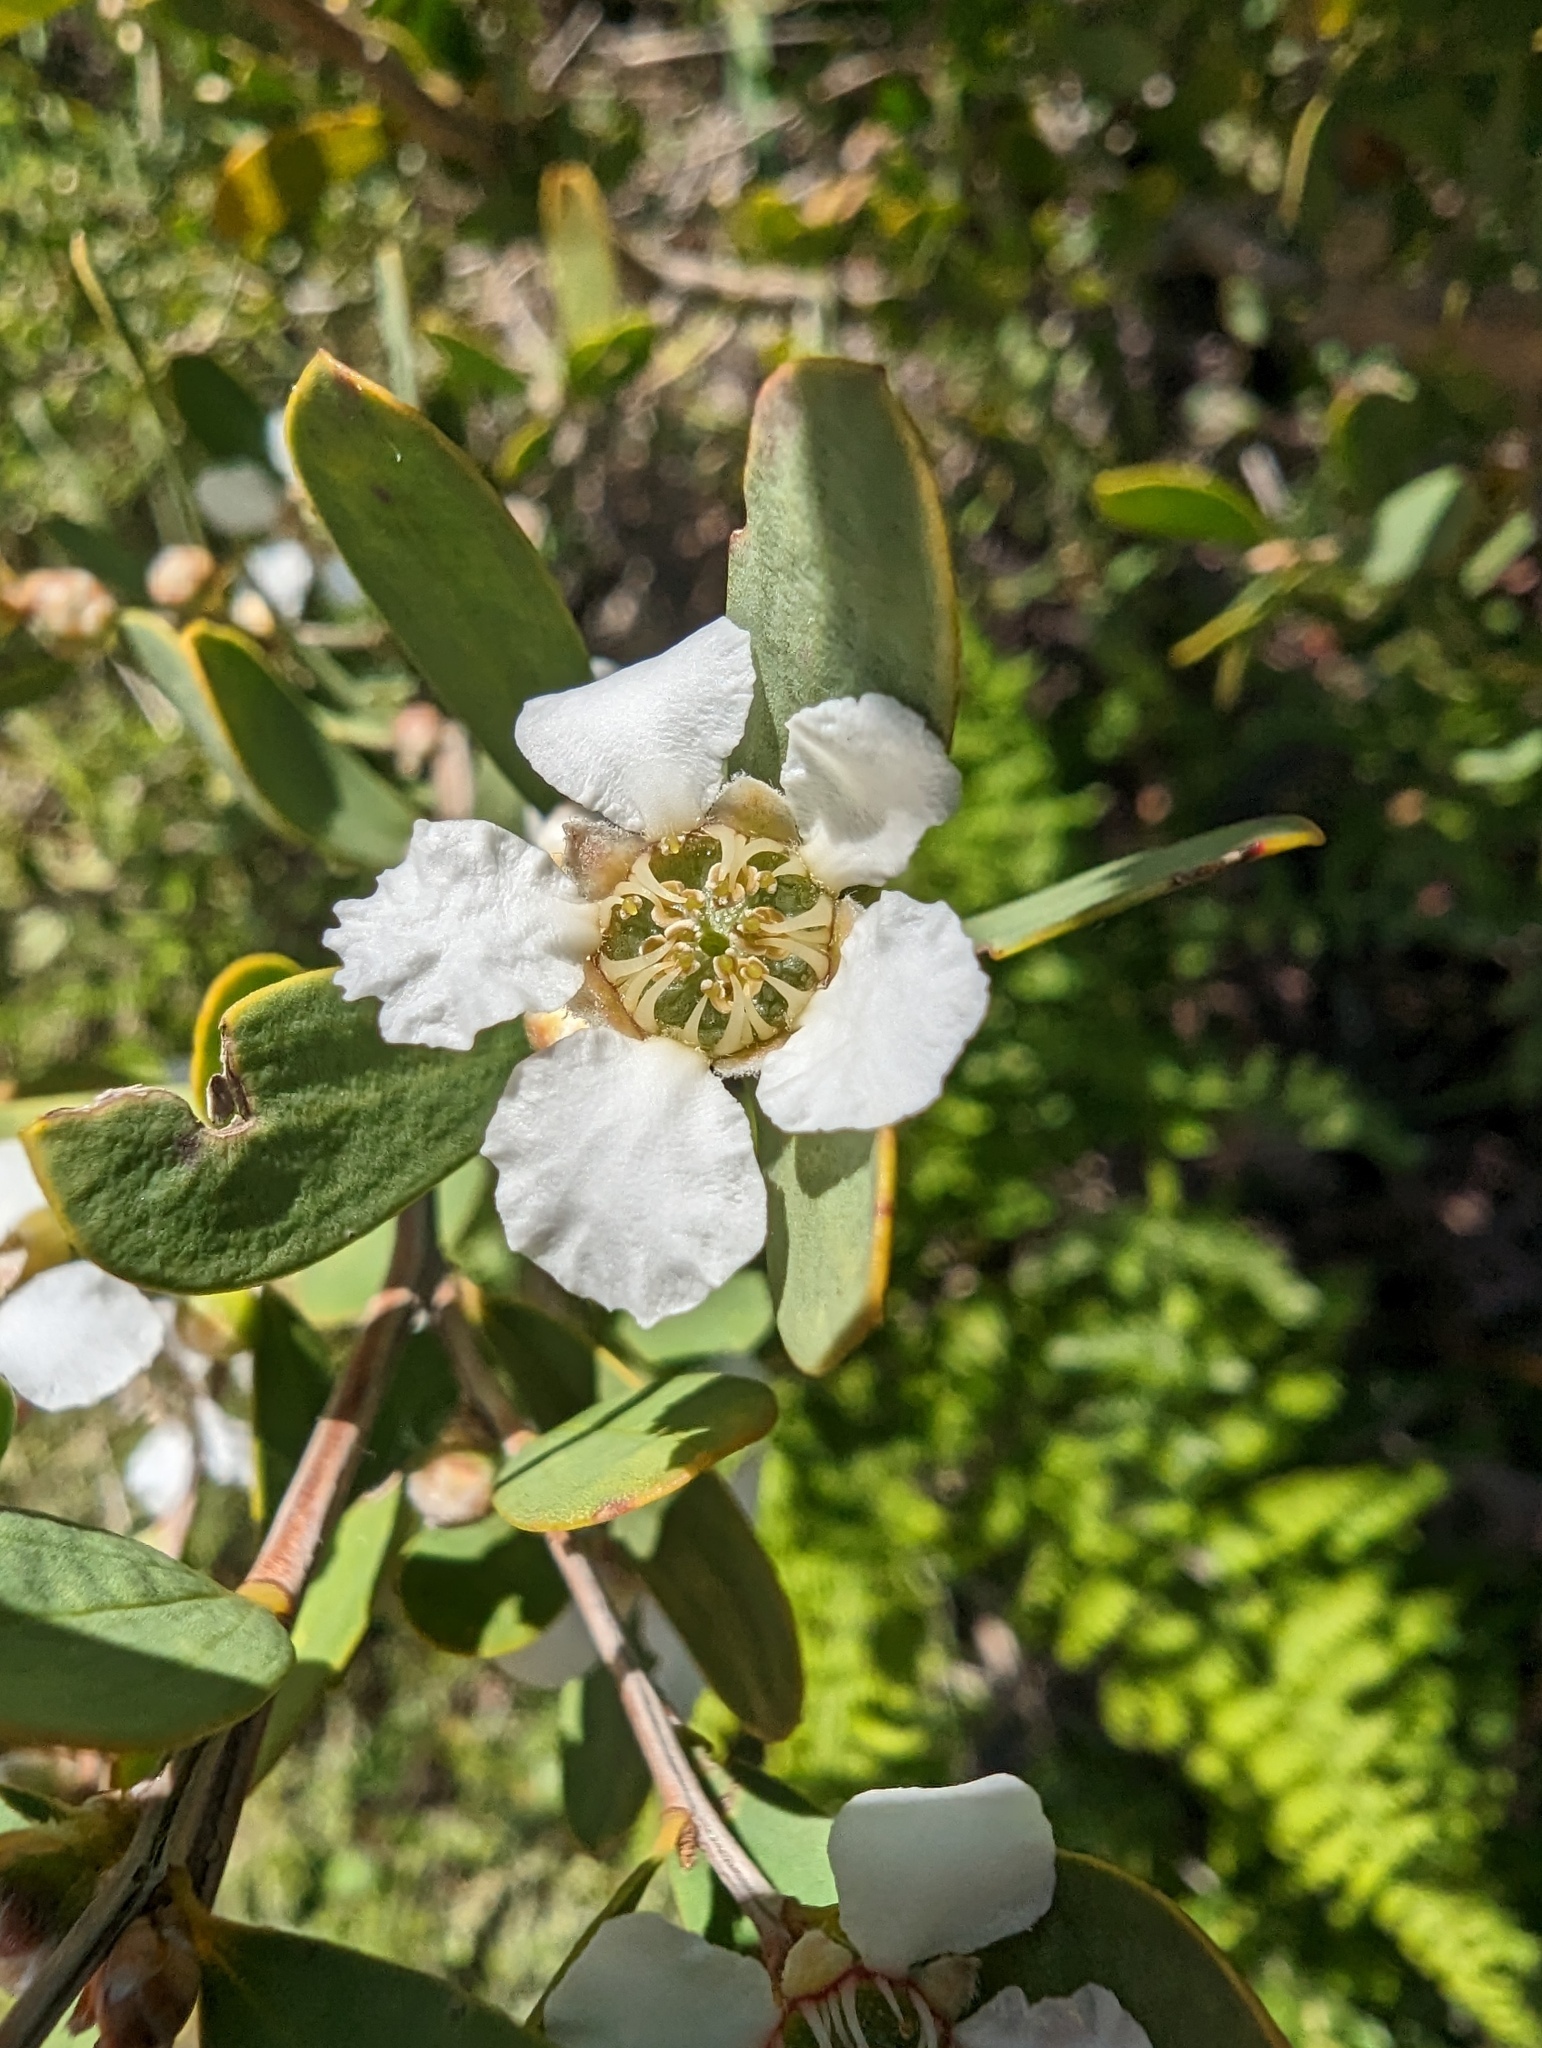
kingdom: Plantae
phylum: Tracheophyta
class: Magnoliopsida
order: Myrtales
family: Myrtaceae
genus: Leptospermum
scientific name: Leptospermum laevigatum
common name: Australian teatree
